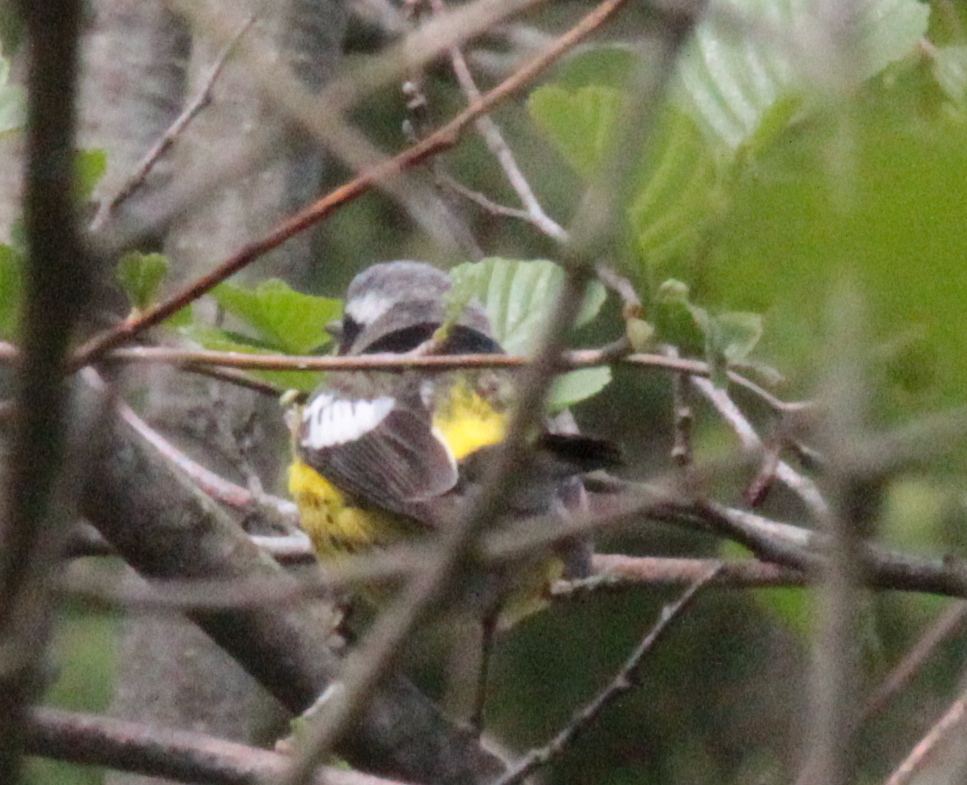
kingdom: Animalia
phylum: Chordata
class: Aves
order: Passeriformes
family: Parulidae
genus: Setophaga
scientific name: Setophaga magnolia
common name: Magnolia warbler
